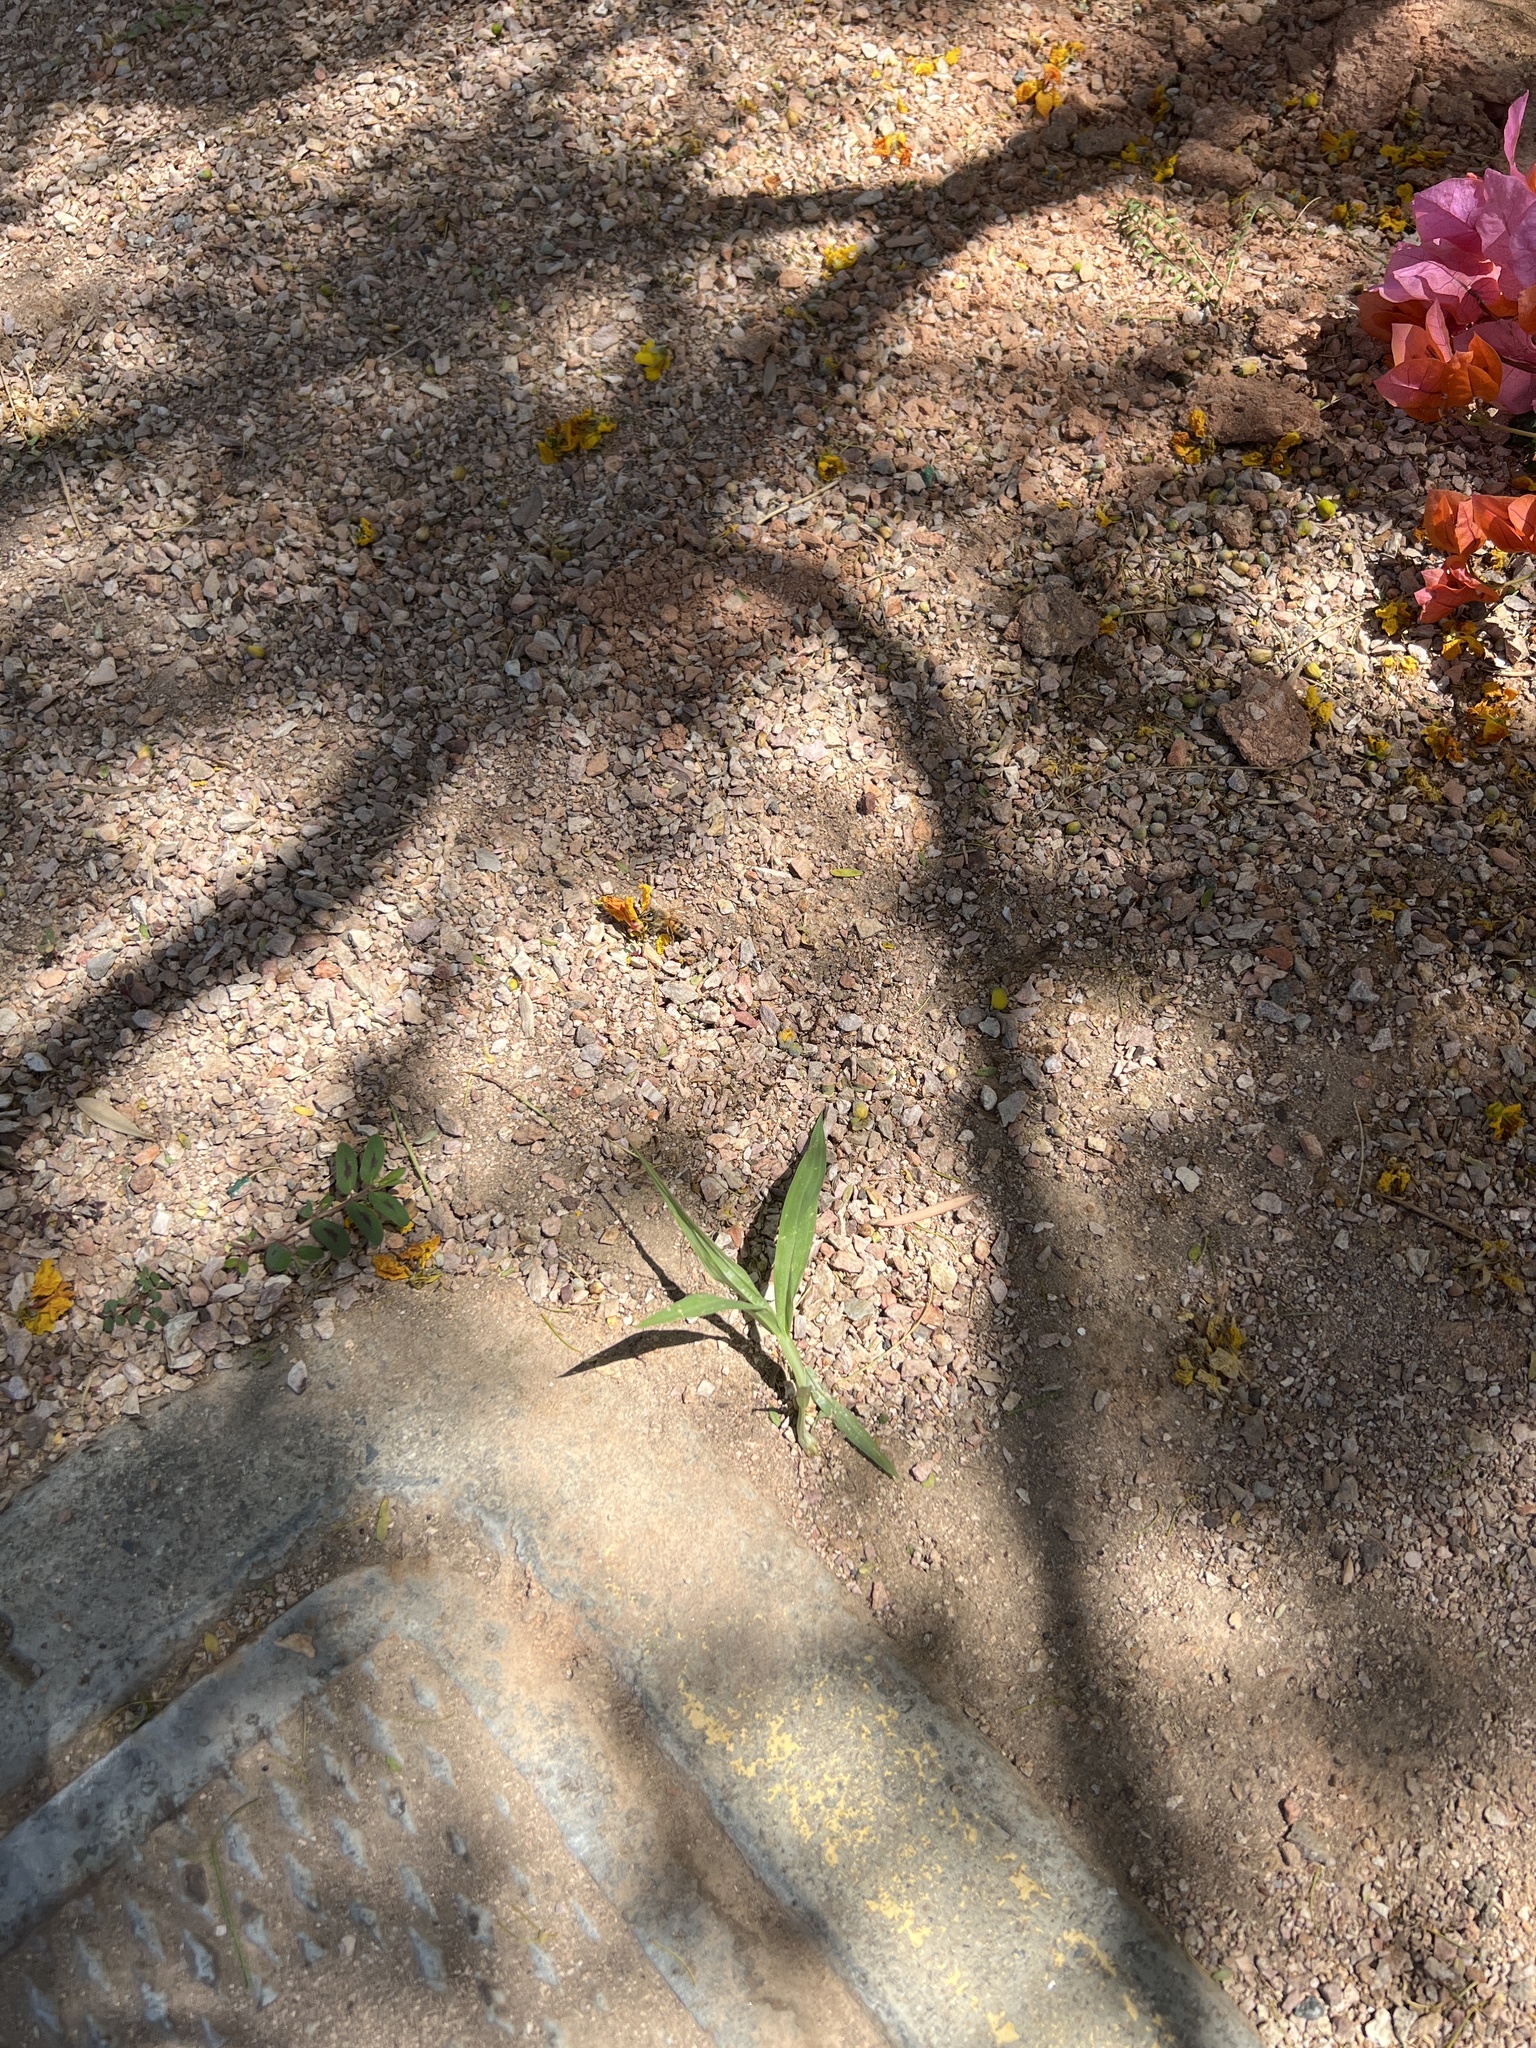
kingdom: Animalia
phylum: Arthropoda
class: Insecta
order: Hymenoptera
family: Apidae
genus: Apis
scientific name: Apis mellifera
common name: Honey bee
